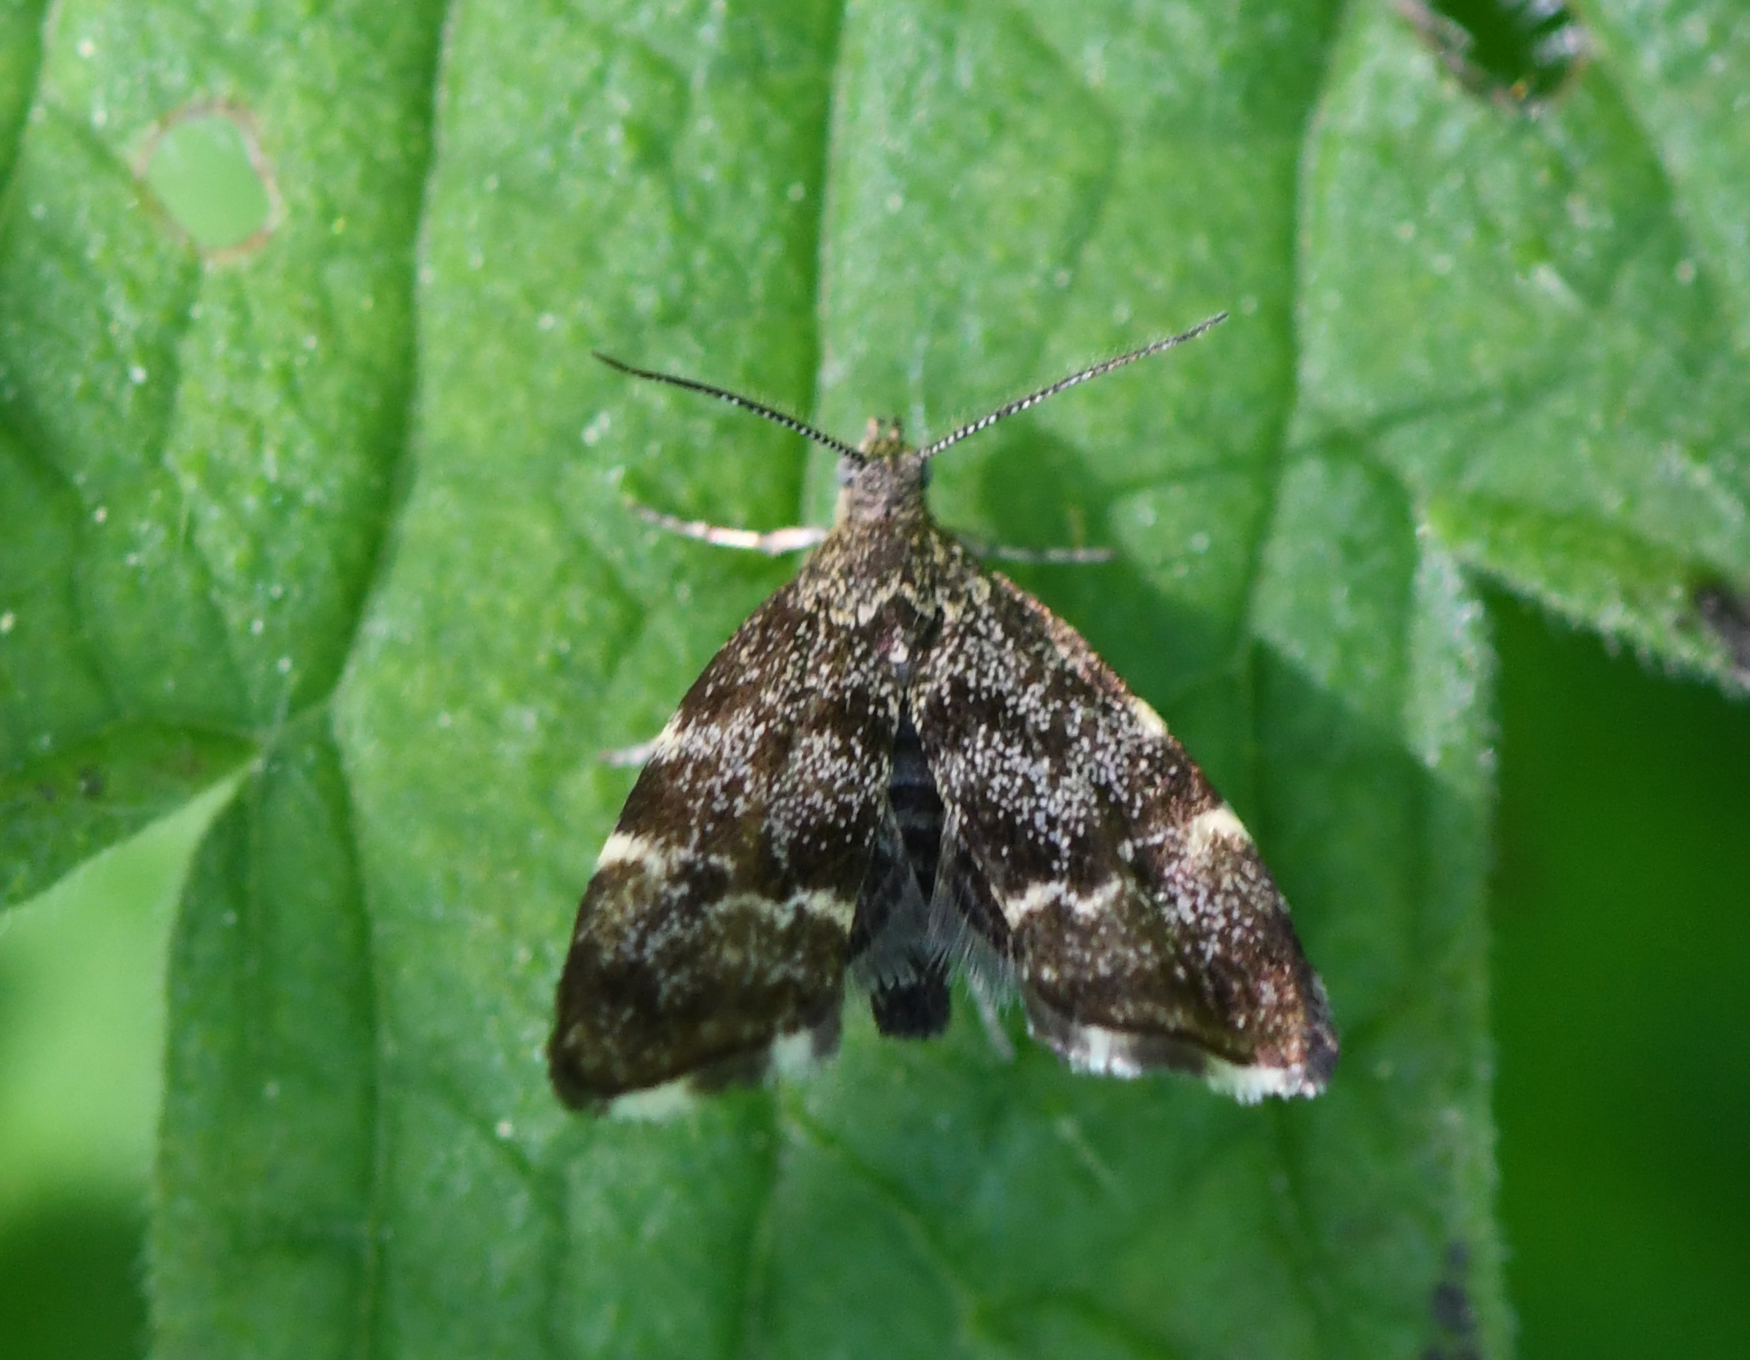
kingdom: Animalia
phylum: Arthropoda
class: Insecta
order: Lepidoptera
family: Choreutidae
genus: Anthophila
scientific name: Anthophila fabriciana
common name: Nettle-tap
